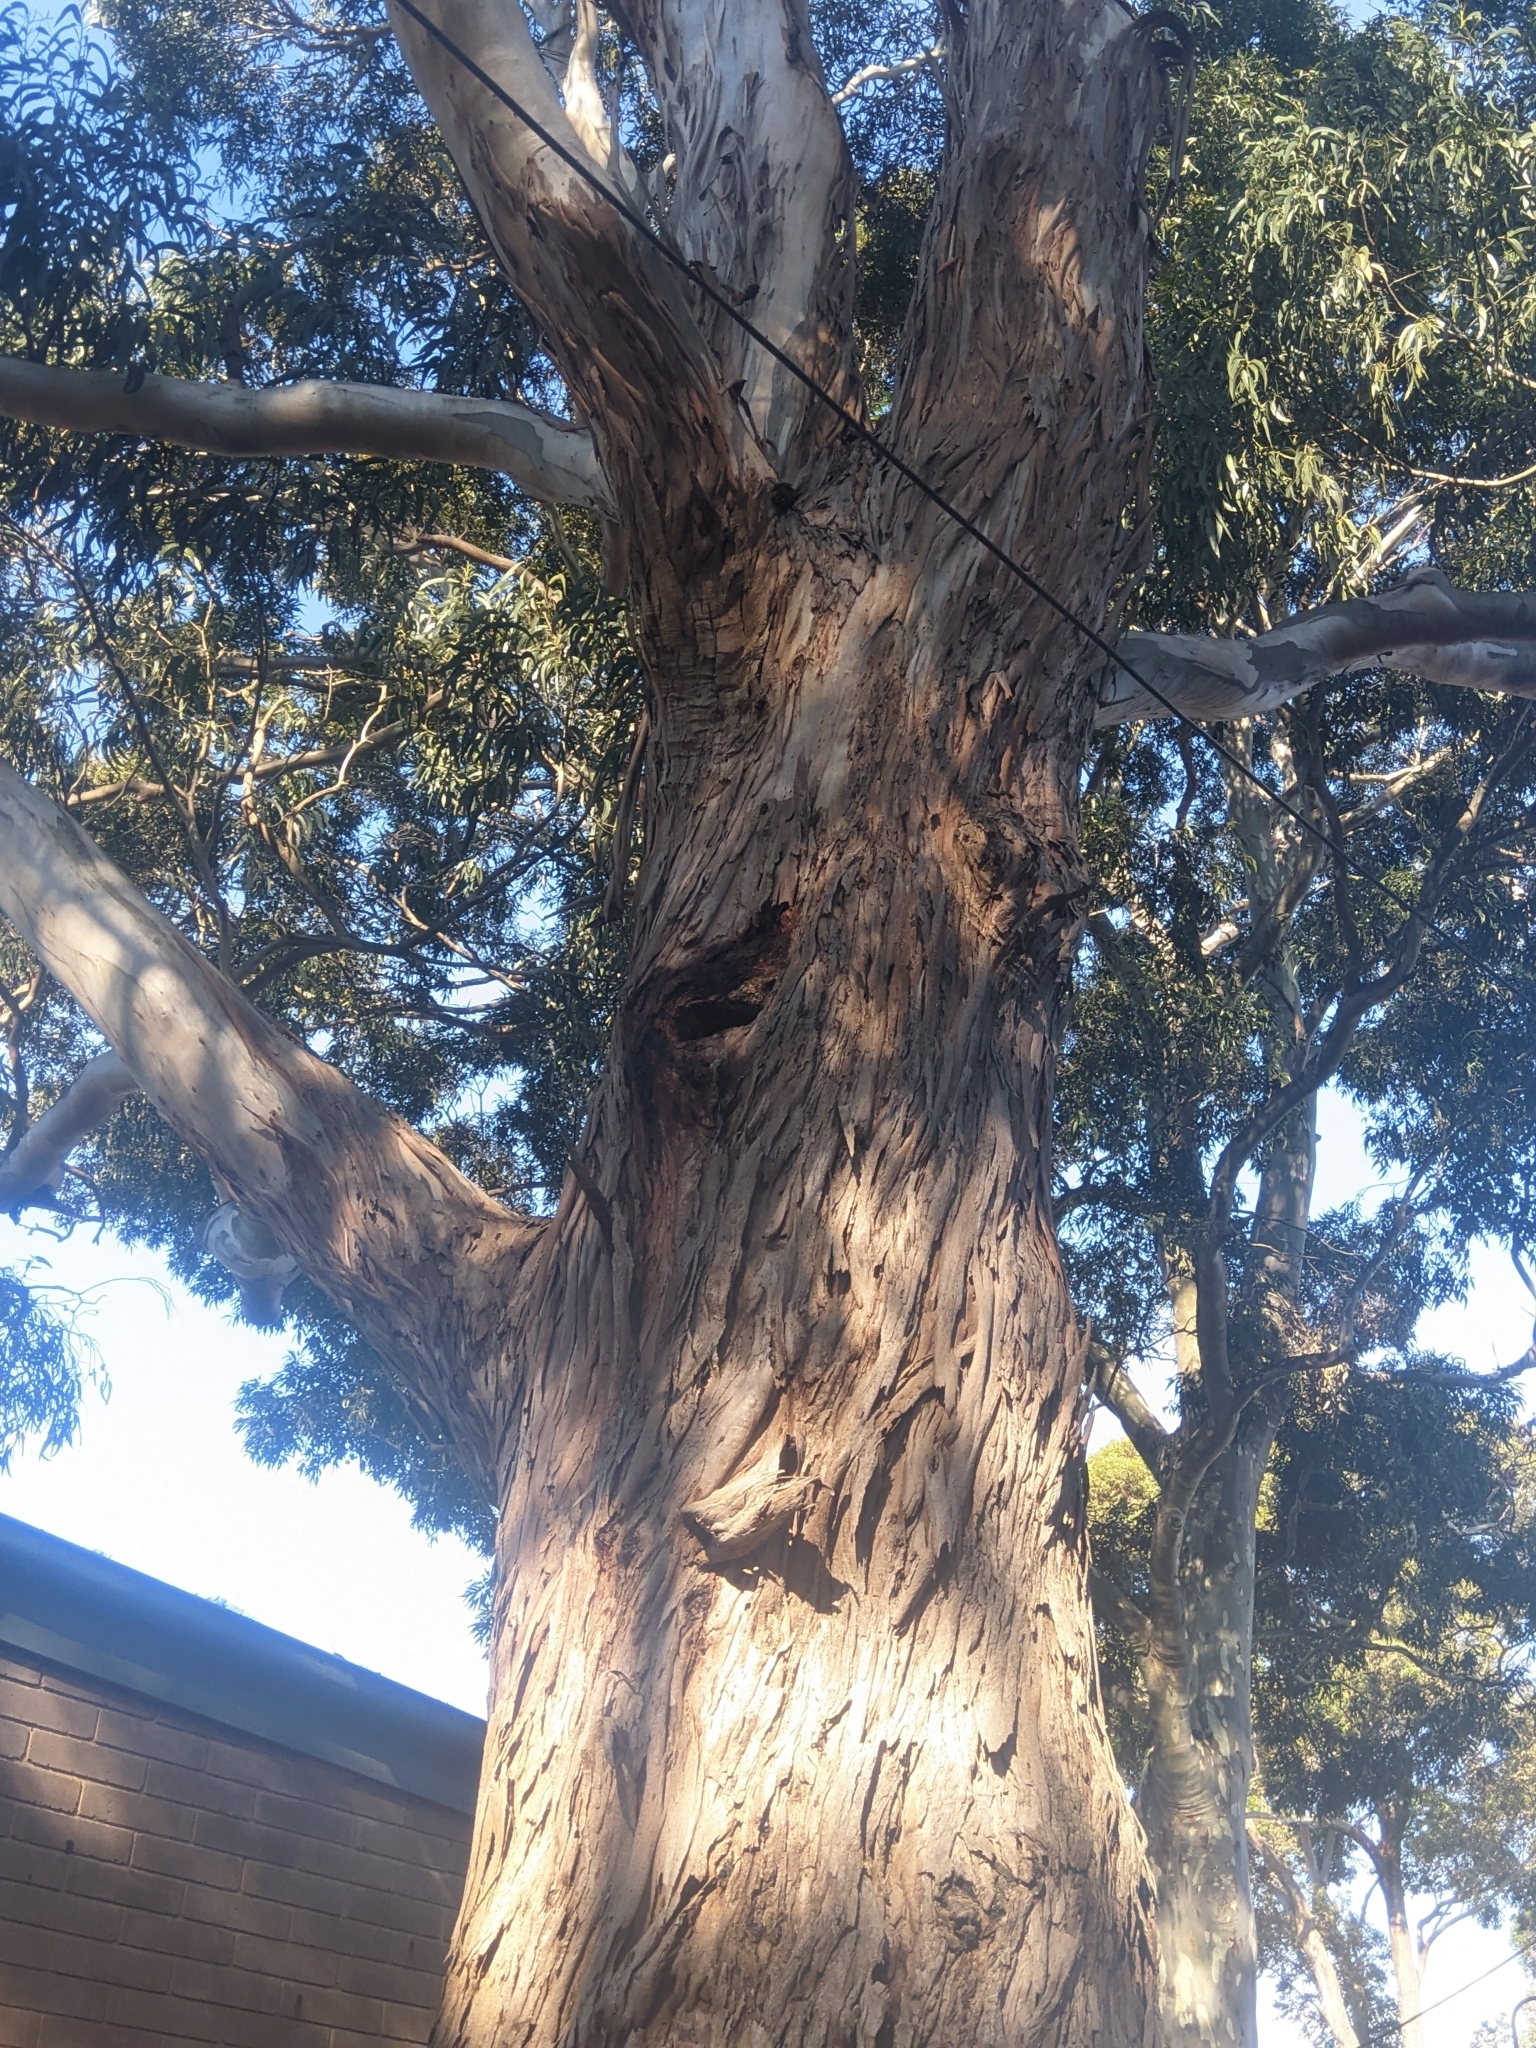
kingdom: Plantae
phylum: Tracheophyta
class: Magnoliopsida
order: Myrtales
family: Myrtaceae
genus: Eucalyptus
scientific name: Eucalyptus globulus
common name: Southern blue-gum
